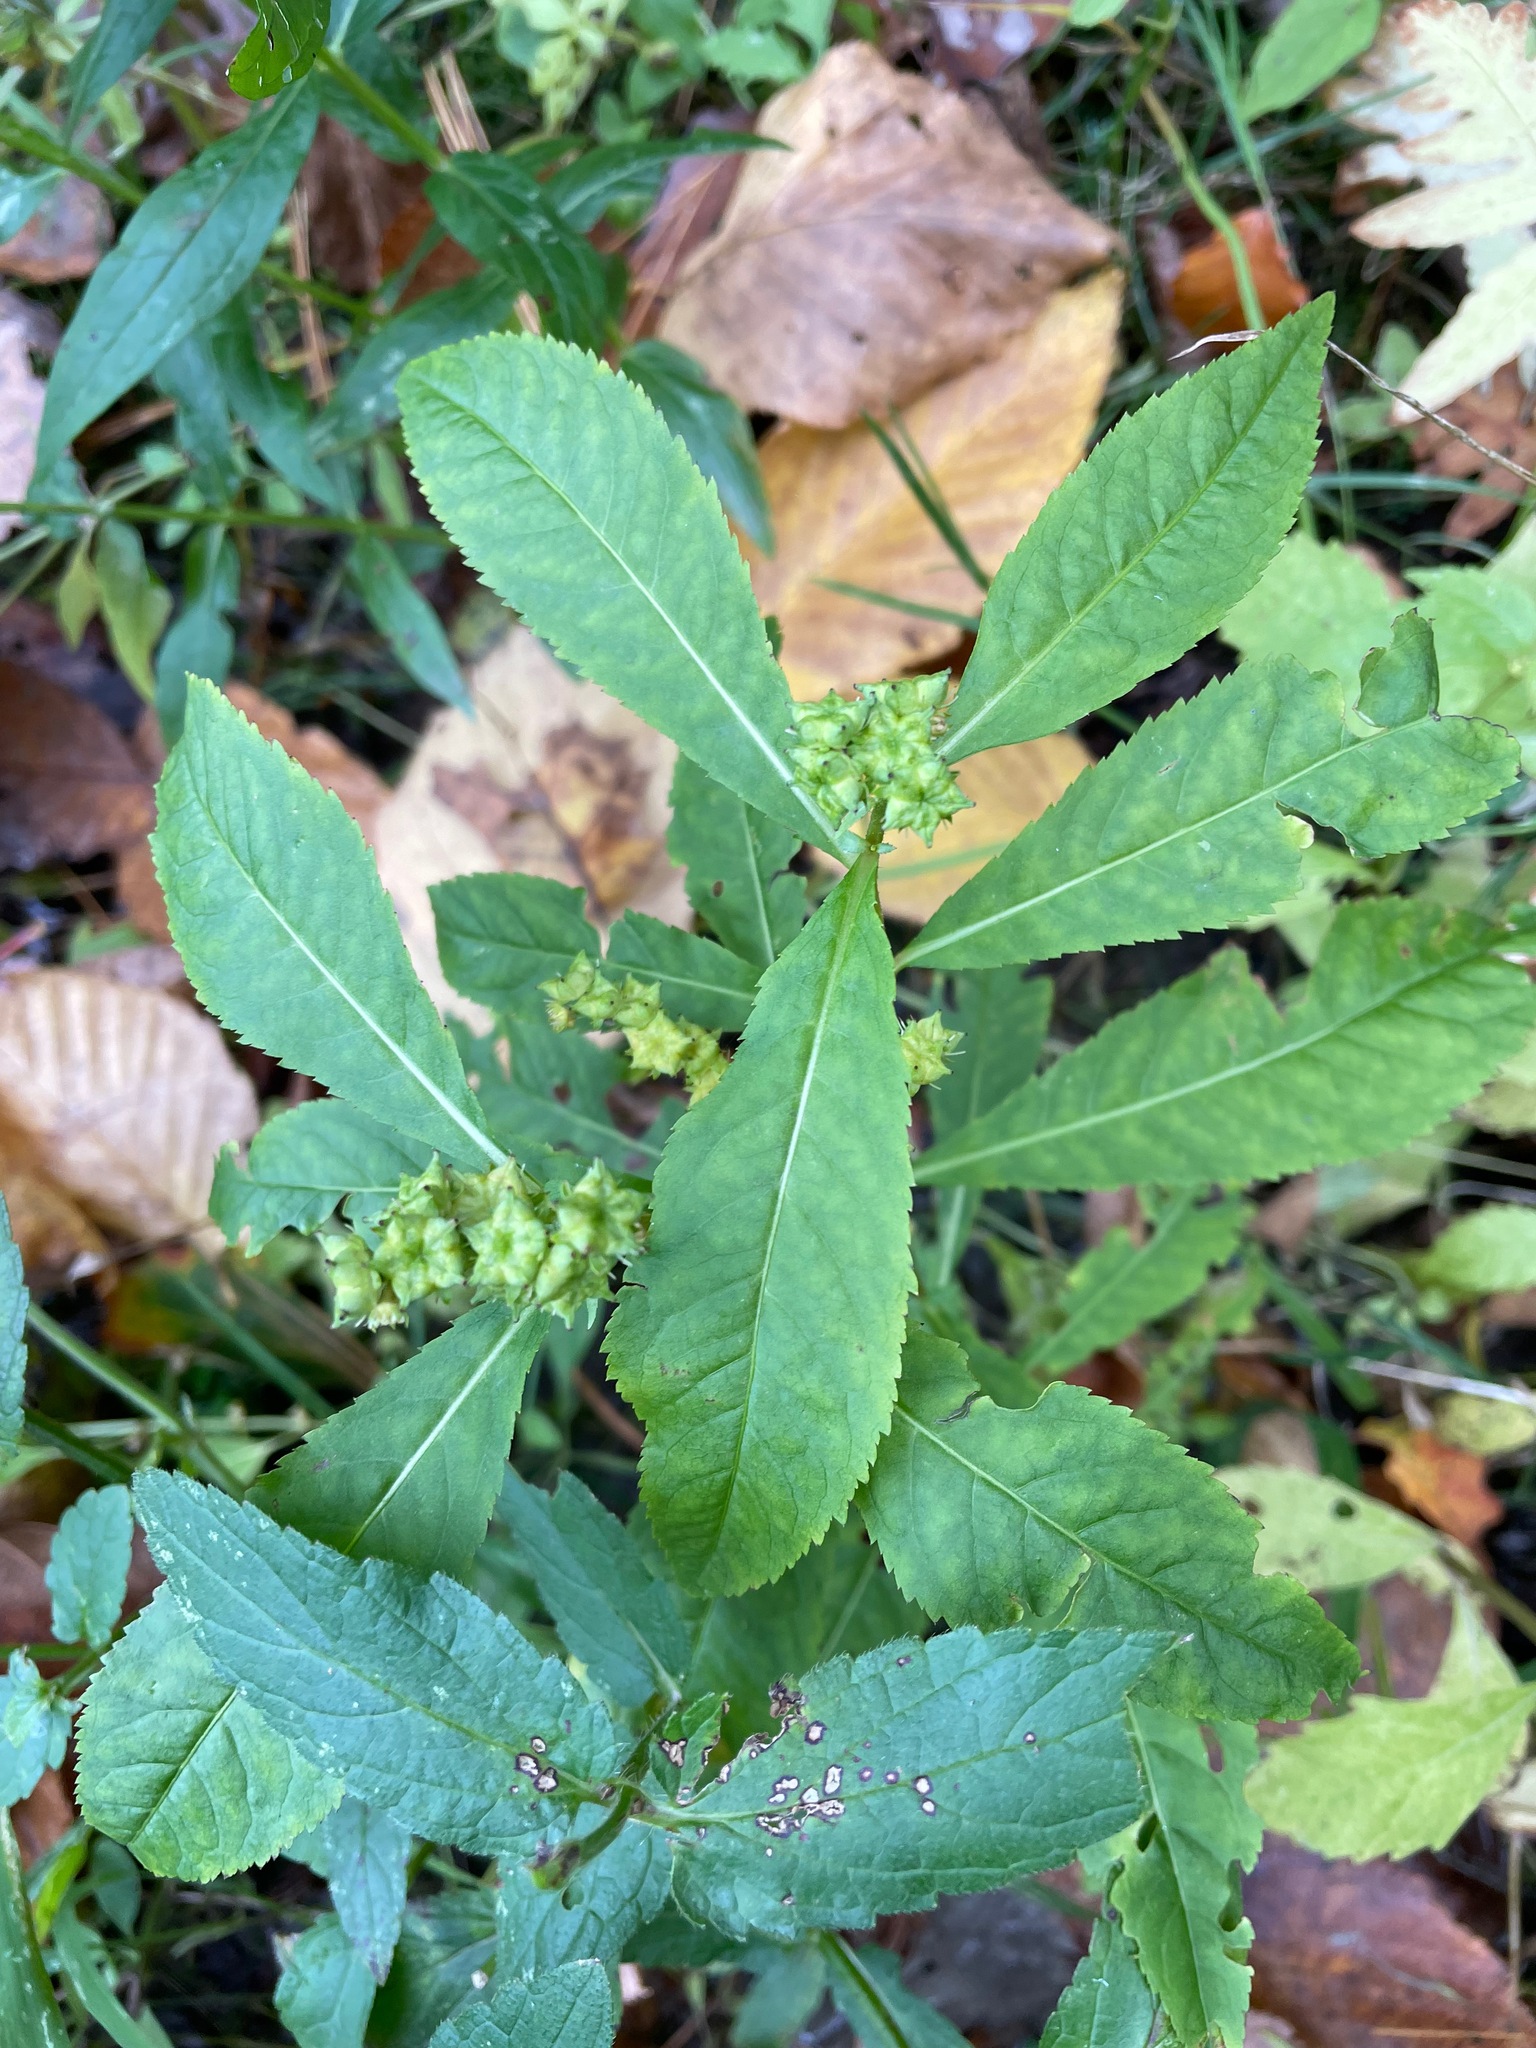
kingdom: Plantae
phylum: Tracheophyta
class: Magnoliopsida
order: Saxifragales
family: Penthoraceae
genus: Penthorum
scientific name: Penthorum sedoides
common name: Ditch stonecrop
